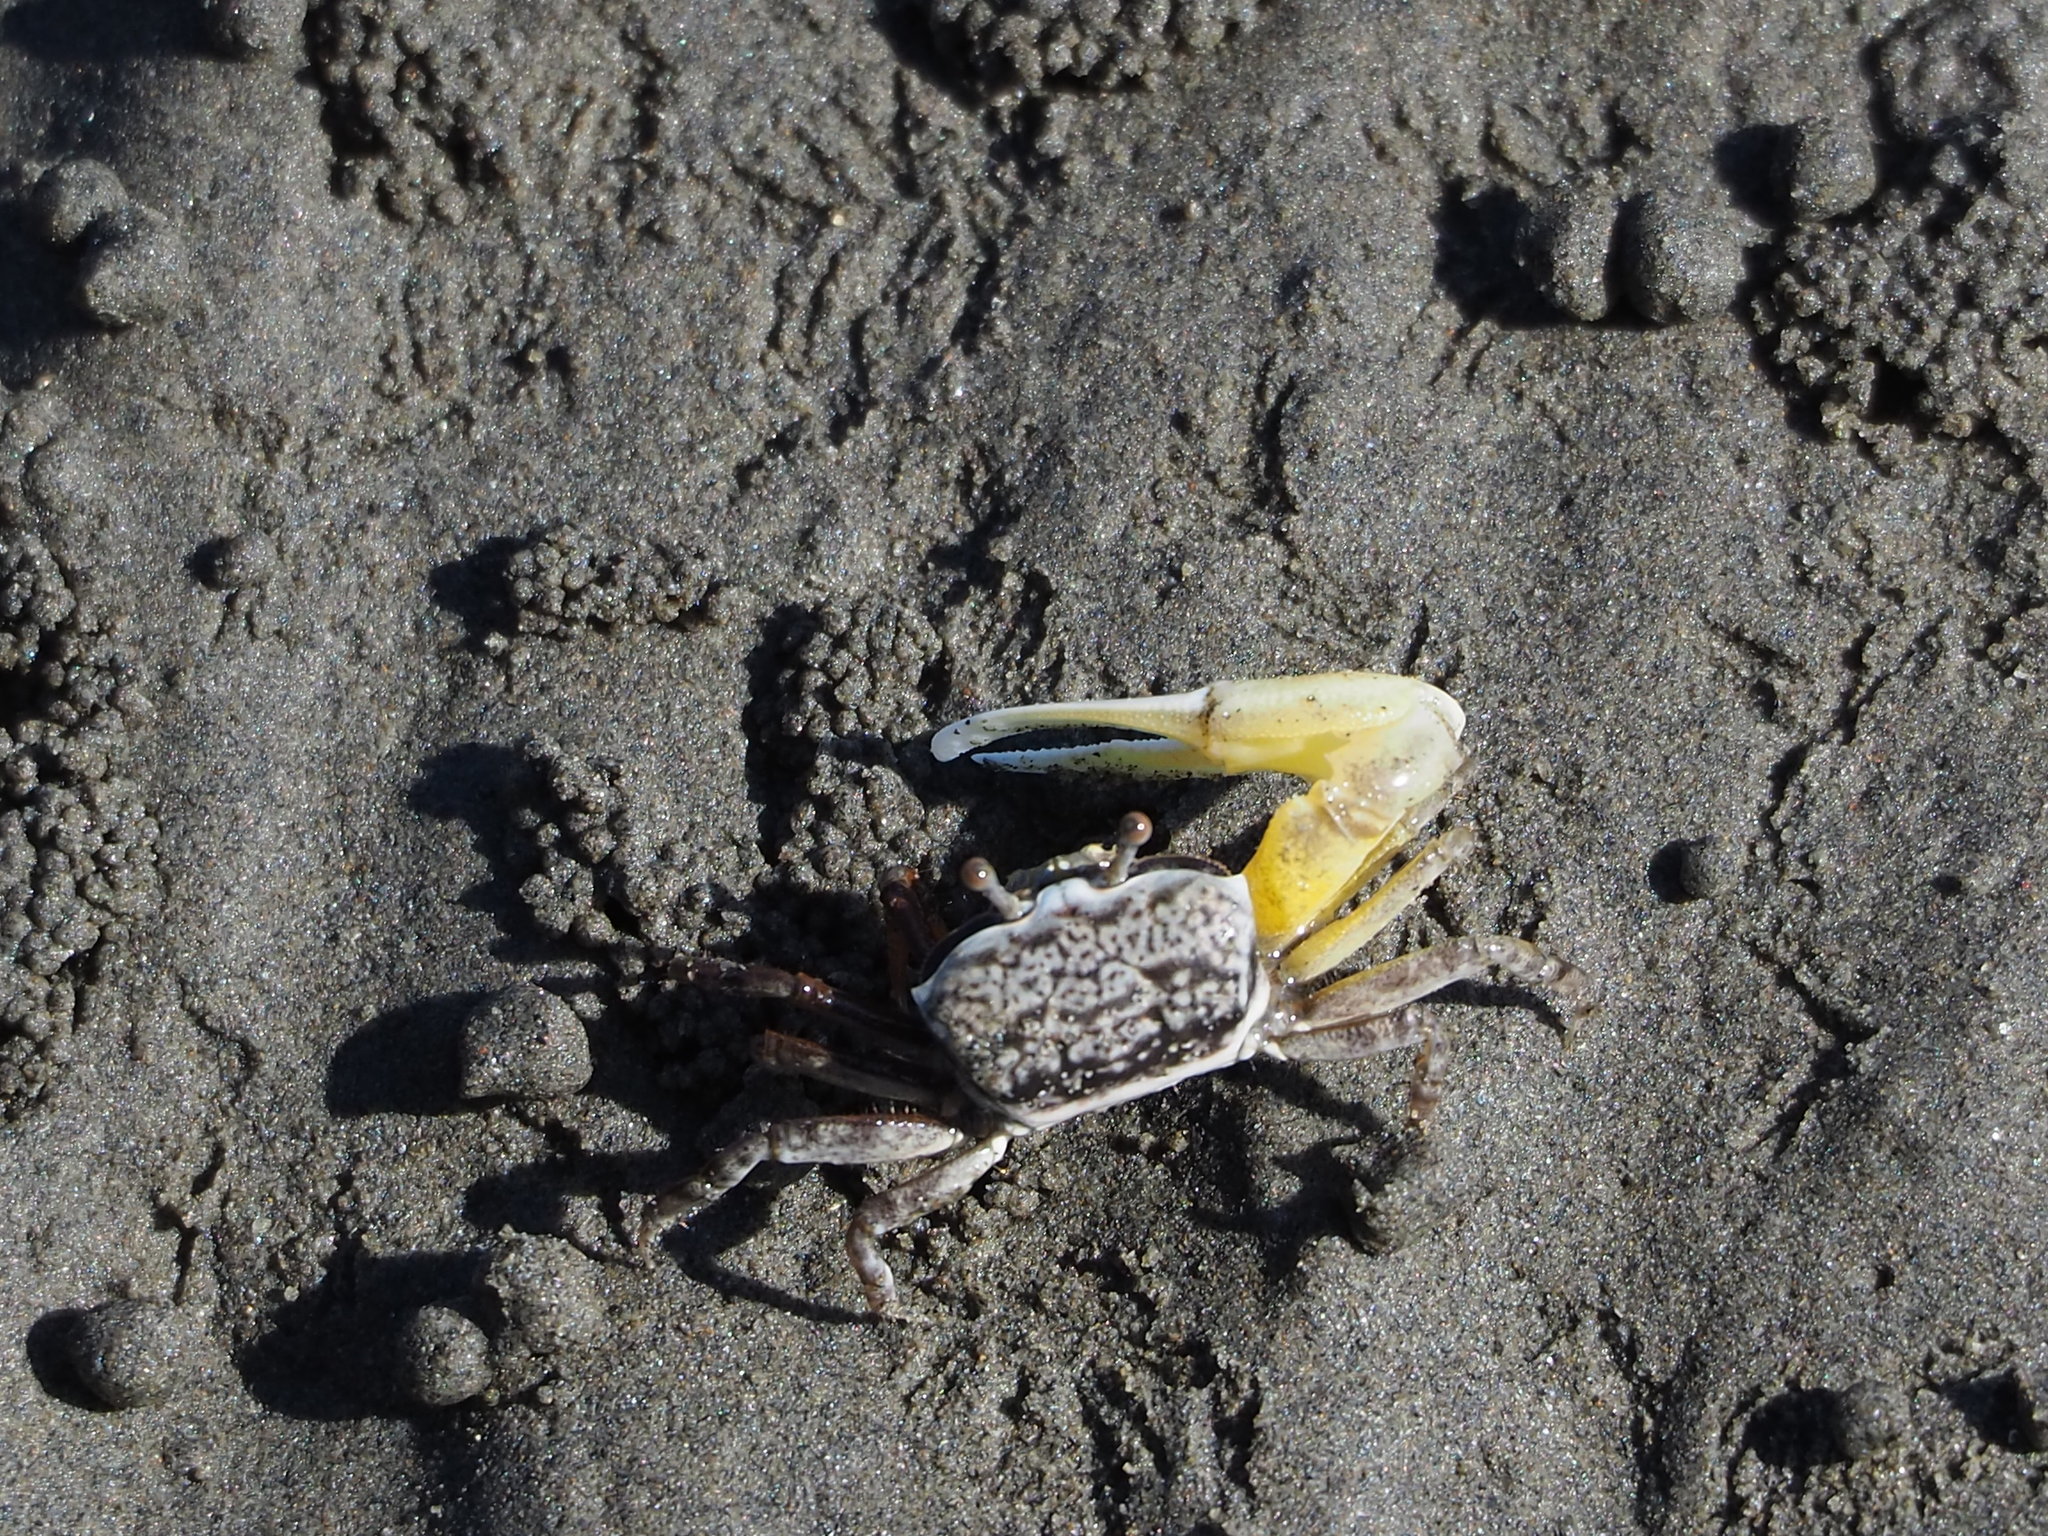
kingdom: Animalia
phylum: Arthropoda
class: Malacostraca
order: Decapoda
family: Ocypodidae
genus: Austruca
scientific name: Austruca lactea
